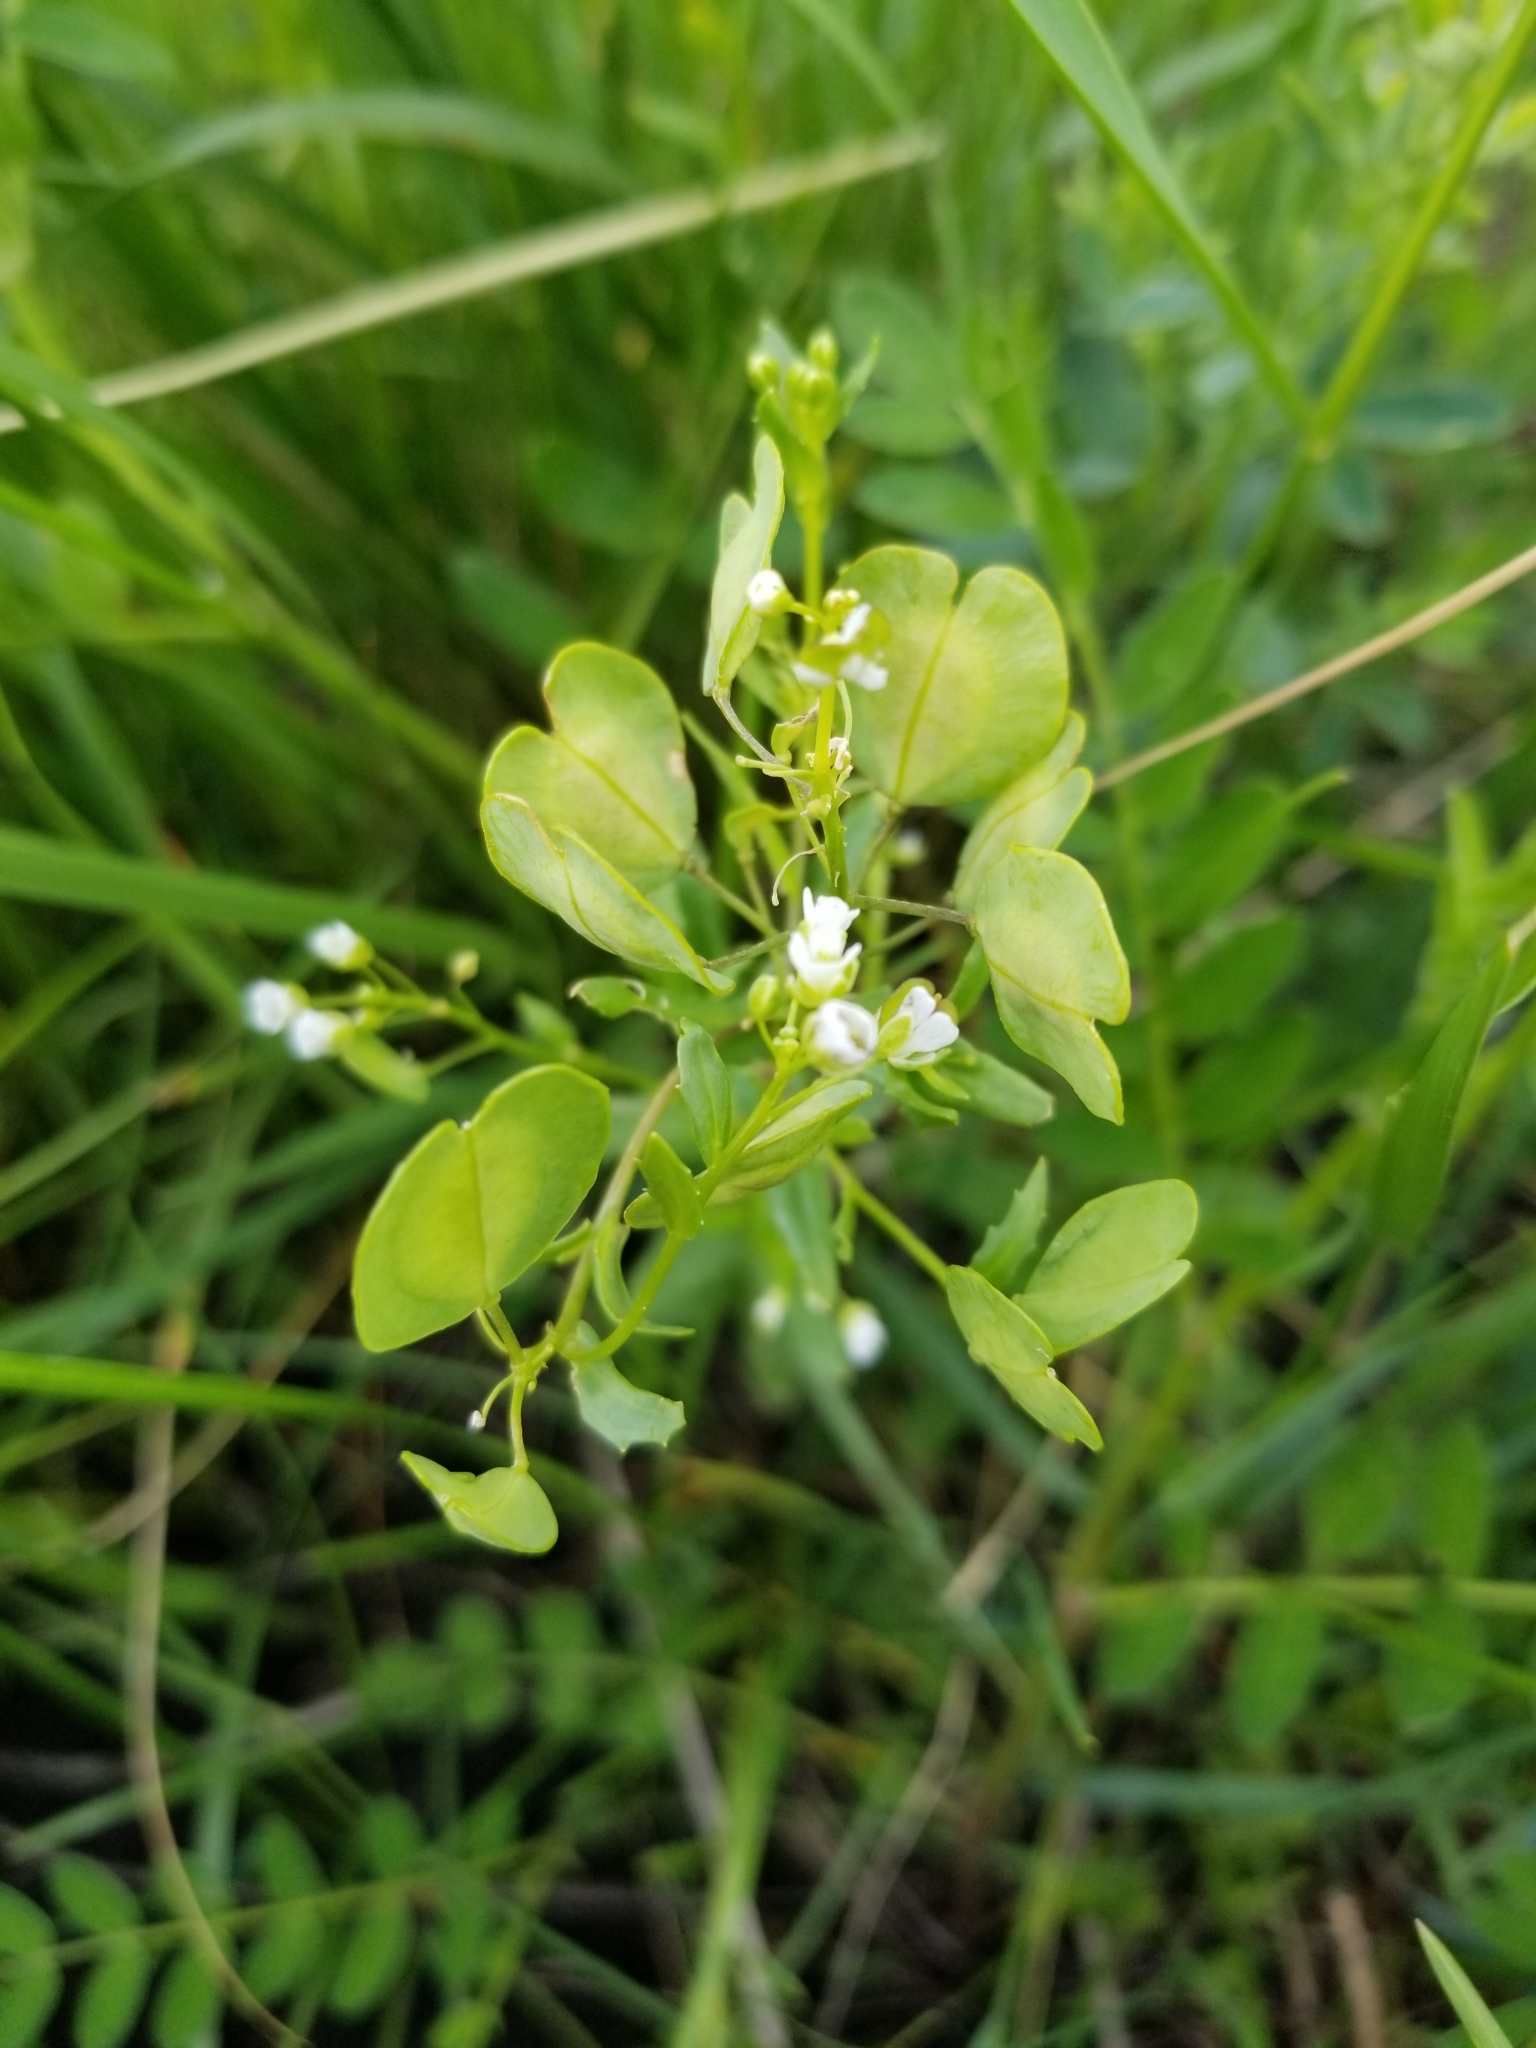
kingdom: Plantae
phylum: Tracheophyta
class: Magnoliopsida
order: Brassicales
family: Brassicaceae
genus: Thlaspi
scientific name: Thlaspi arvense
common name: Field pennycress
